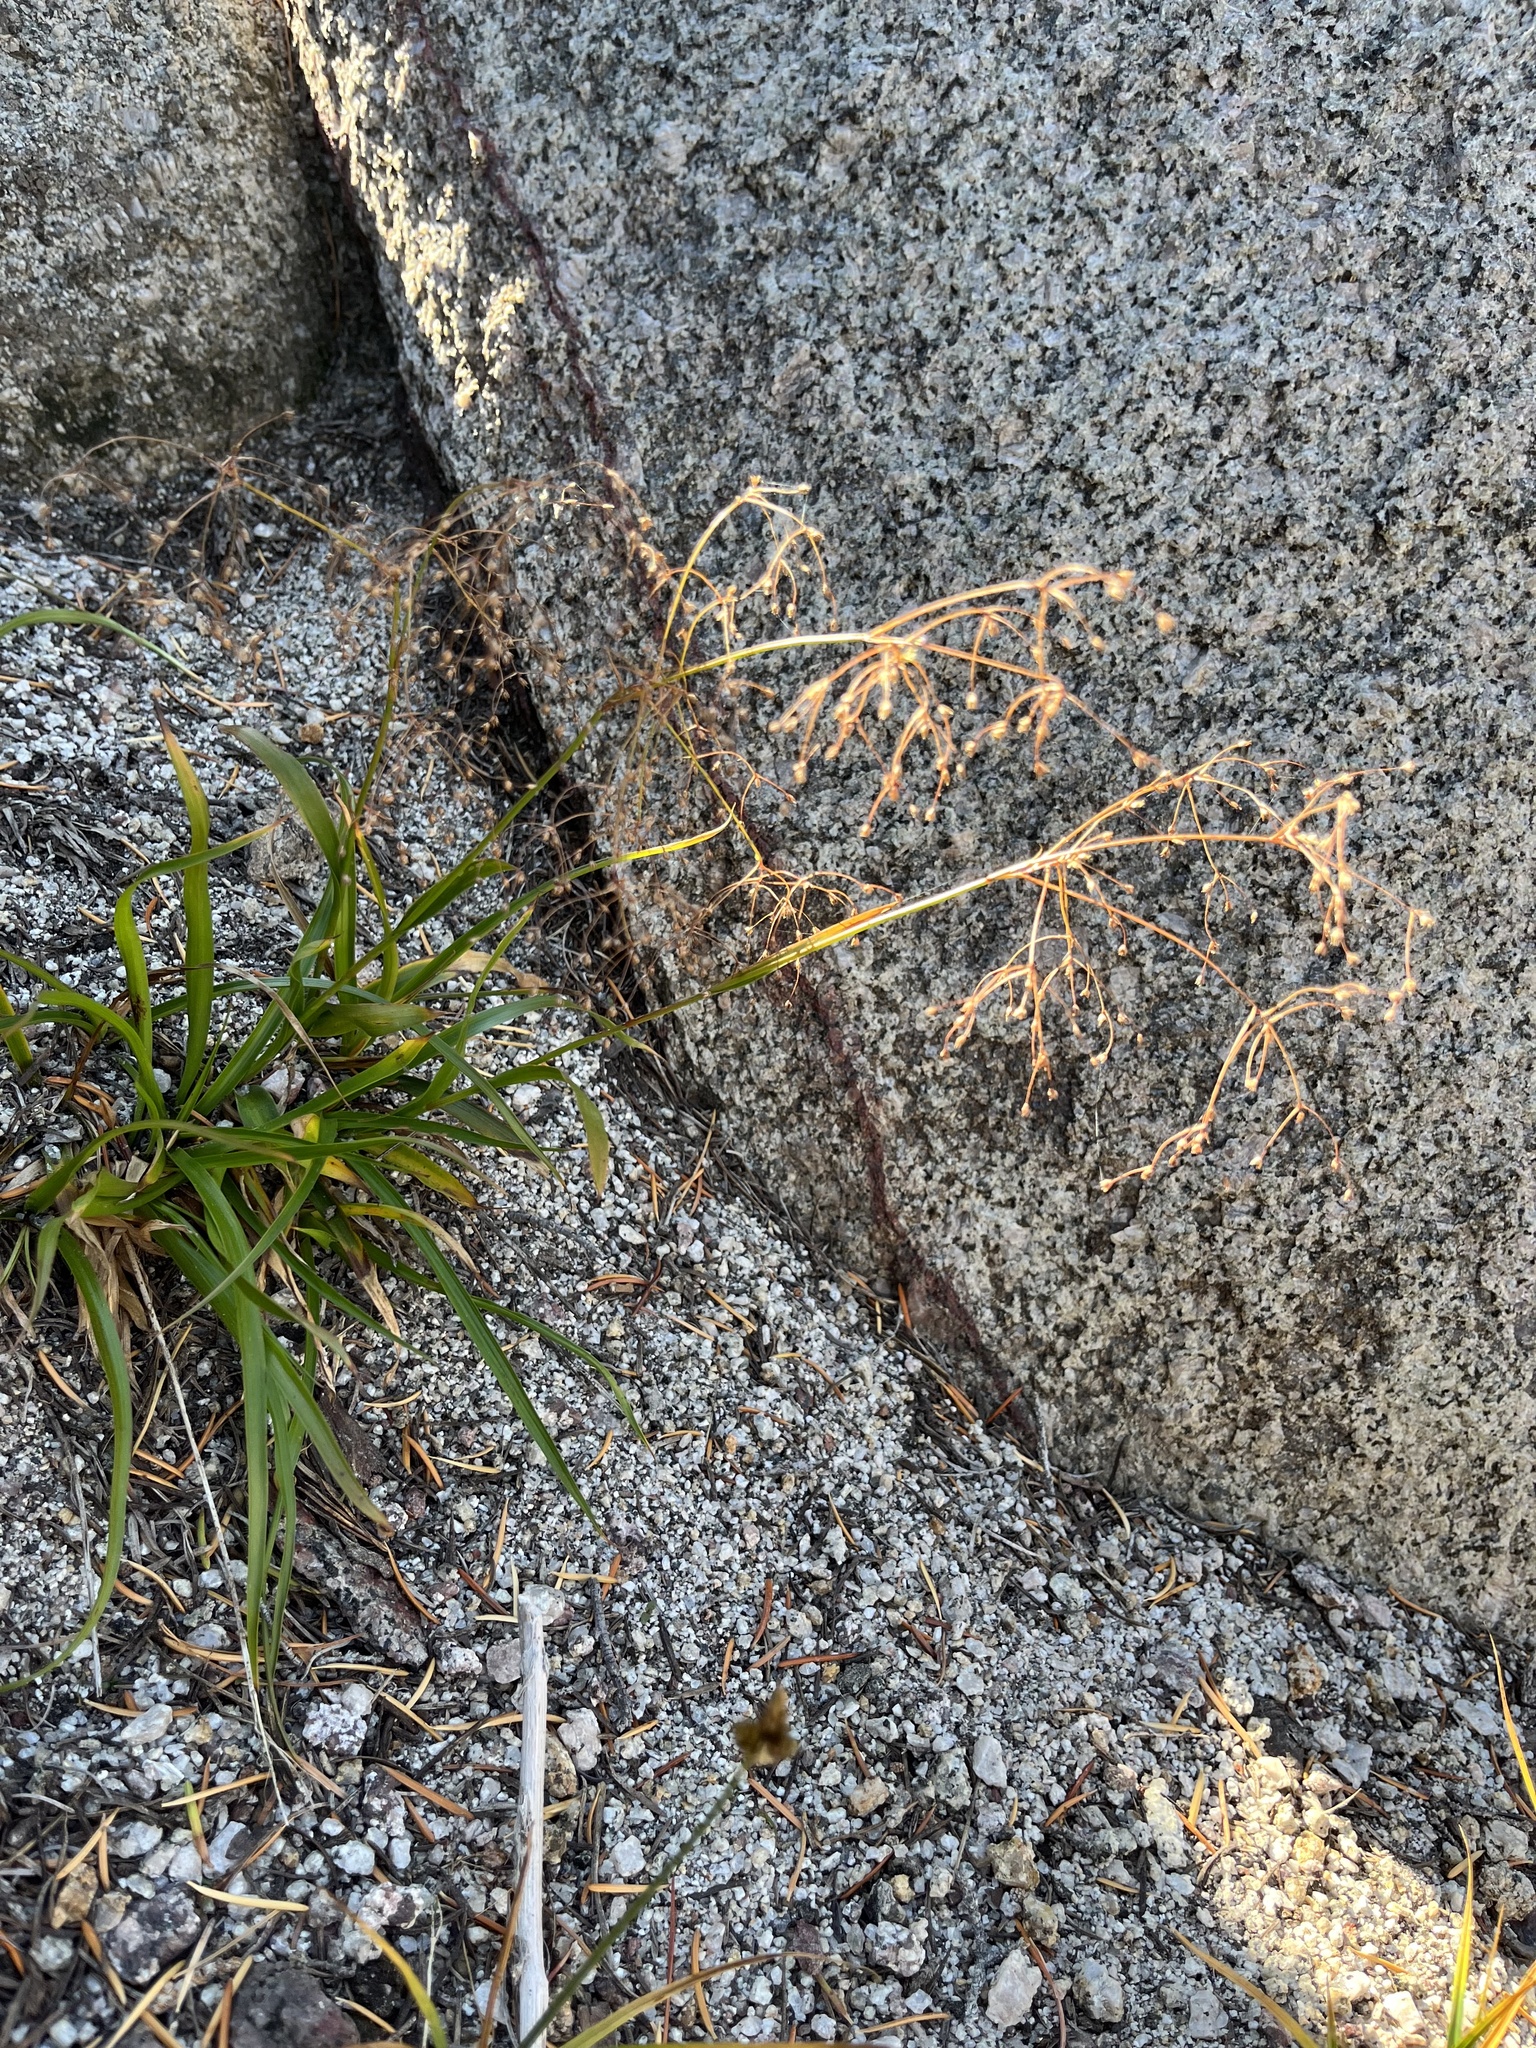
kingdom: Plantae
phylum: Tracheophyta
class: Liliopsida
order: Poales
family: Juncaceae
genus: Luzula
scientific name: Luzula divaricata
